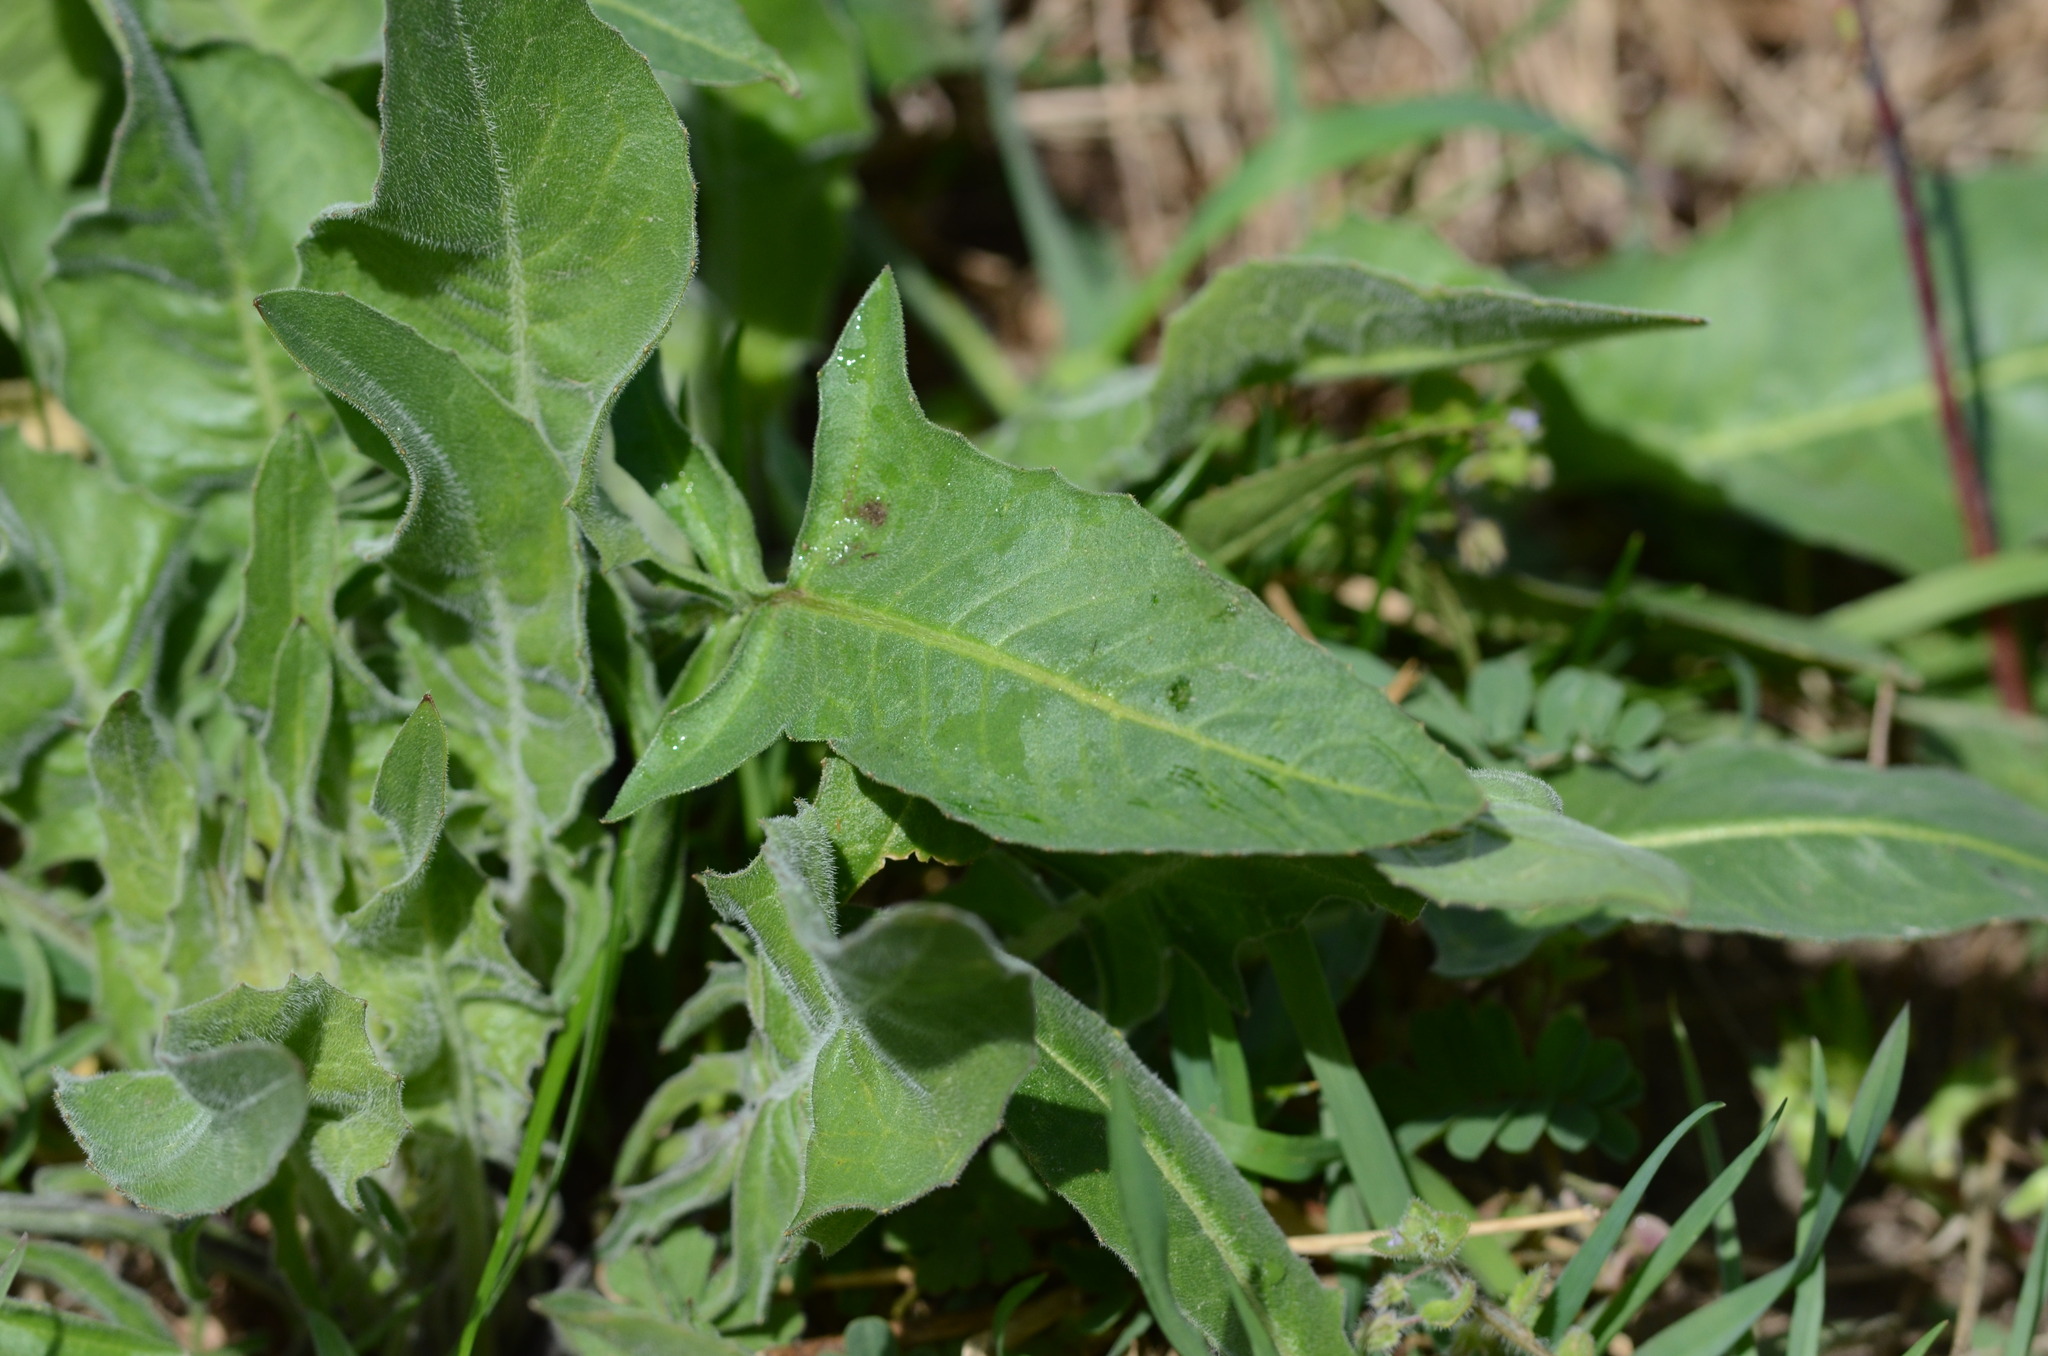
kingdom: Plantae
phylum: Tracheophyta
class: Magnoliopsida
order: Brassicales
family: Brassicaceae
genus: Bunias
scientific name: Bunias orientalis
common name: Warty-cabbage
